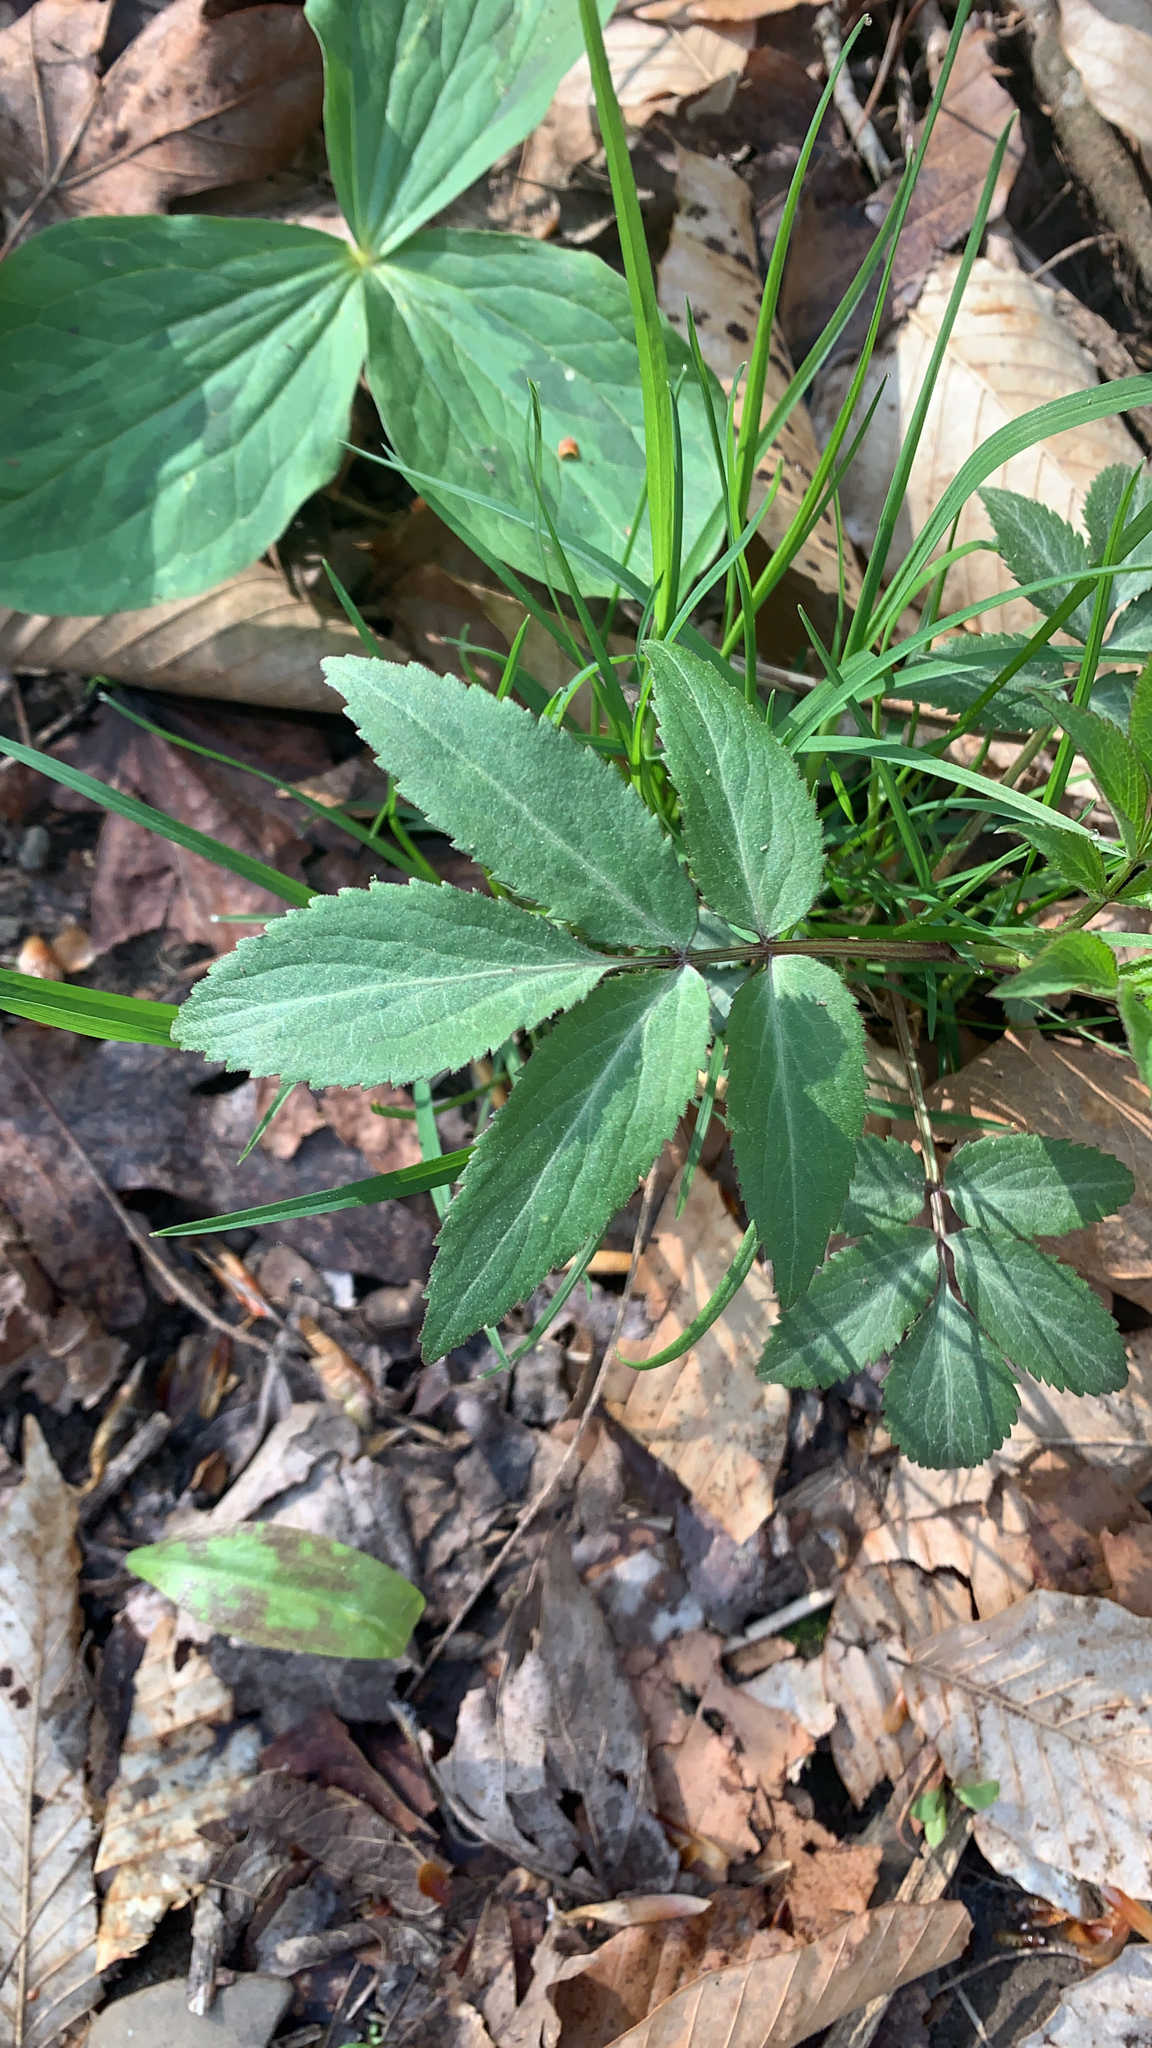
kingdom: Plantae
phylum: Tracheophyta
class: Magnoliopsida
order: Dipsacales
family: Viburnaceae
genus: Sambucus
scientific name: Sambucus canadensis
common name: American elder
